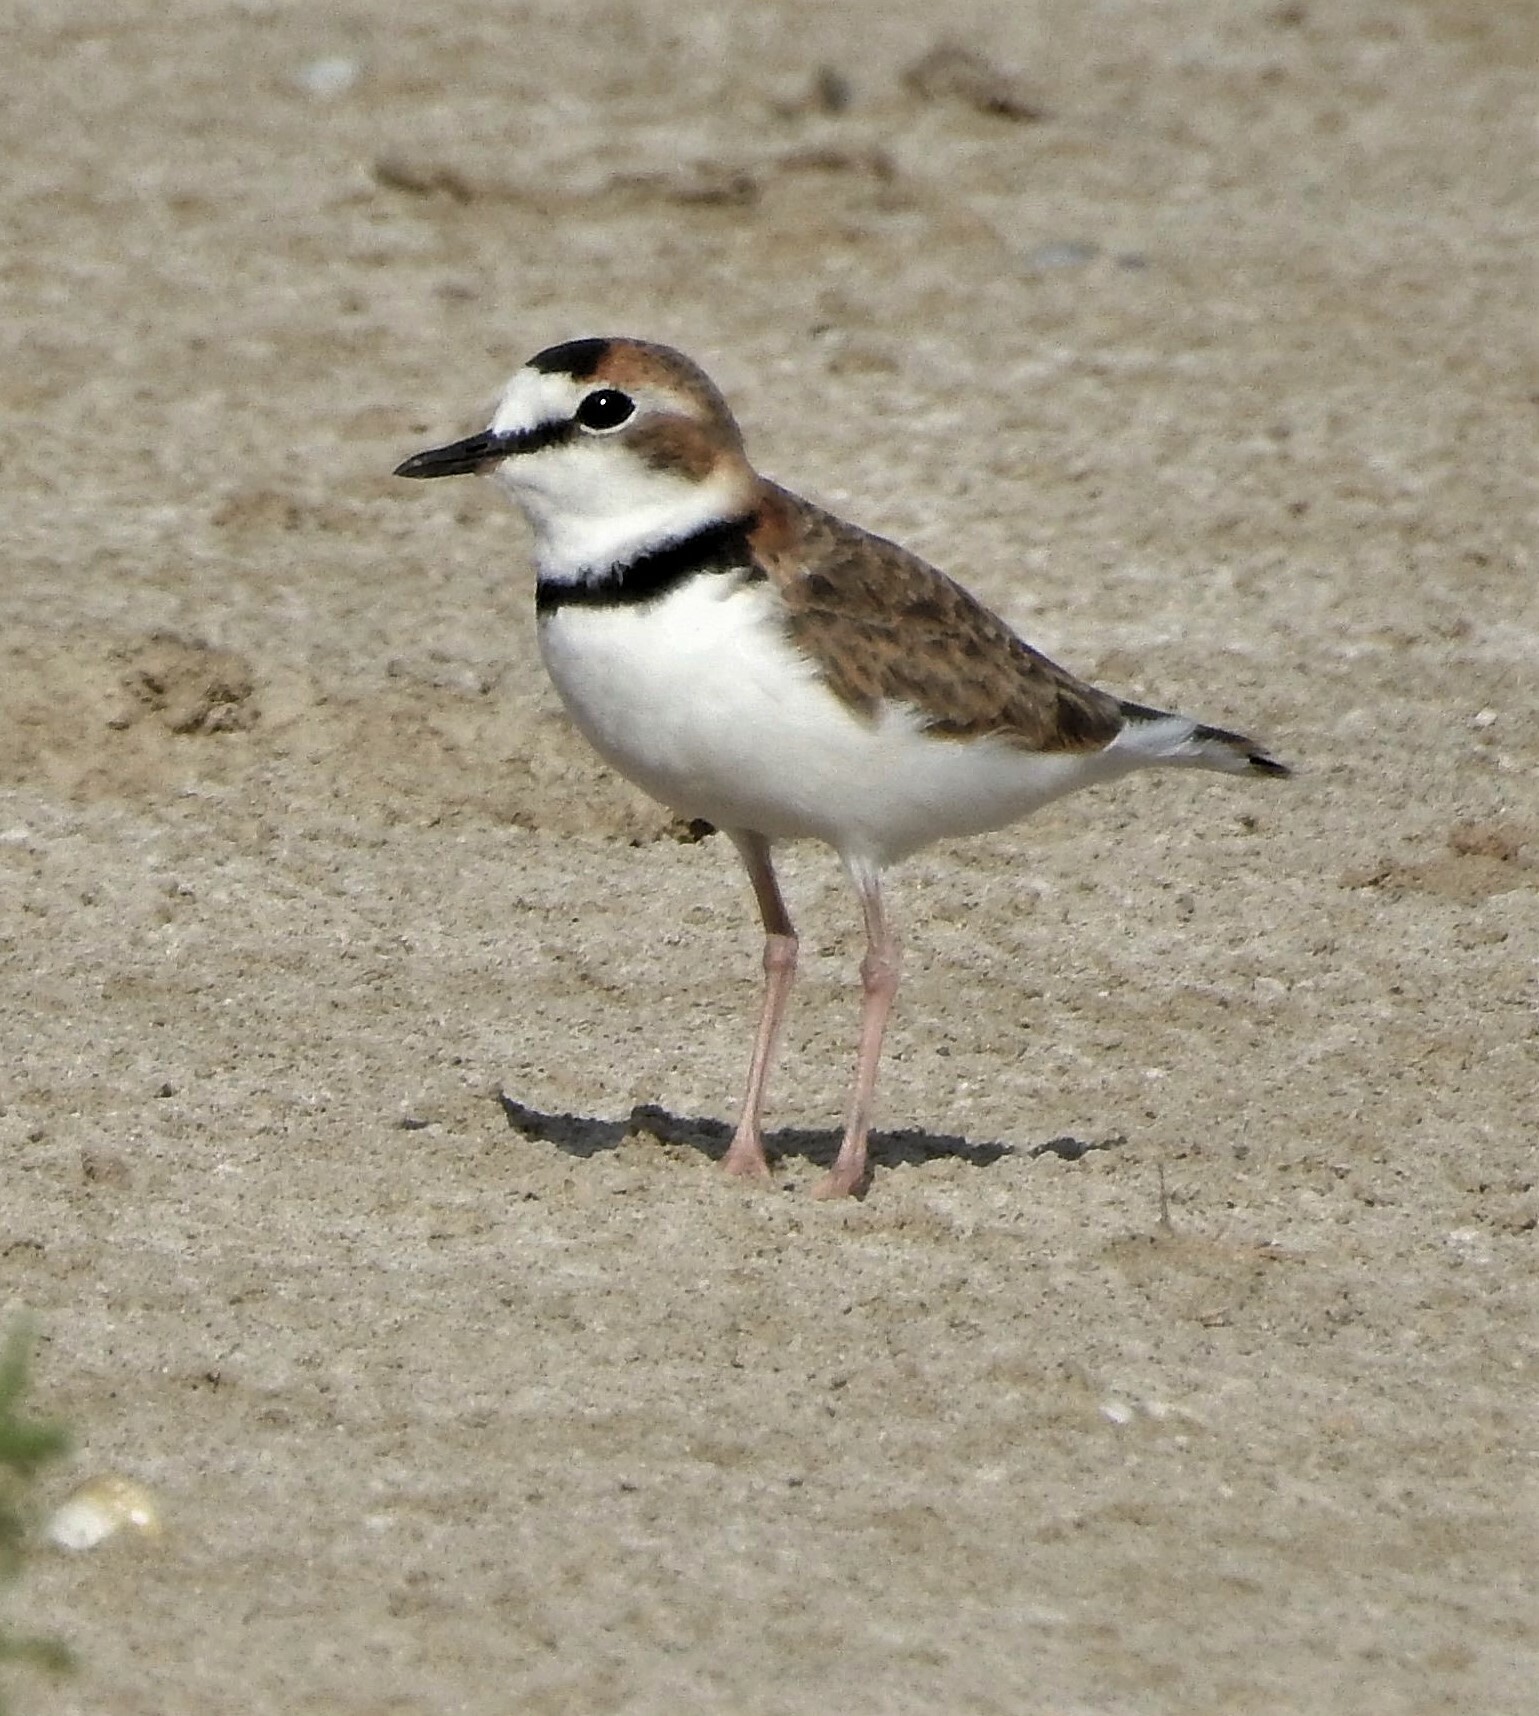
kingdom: Animalia
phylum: Chordata
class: Aves
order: Charadriiformes
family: Charadriidae
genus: Anarhynchus
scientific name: Anarhynchus
